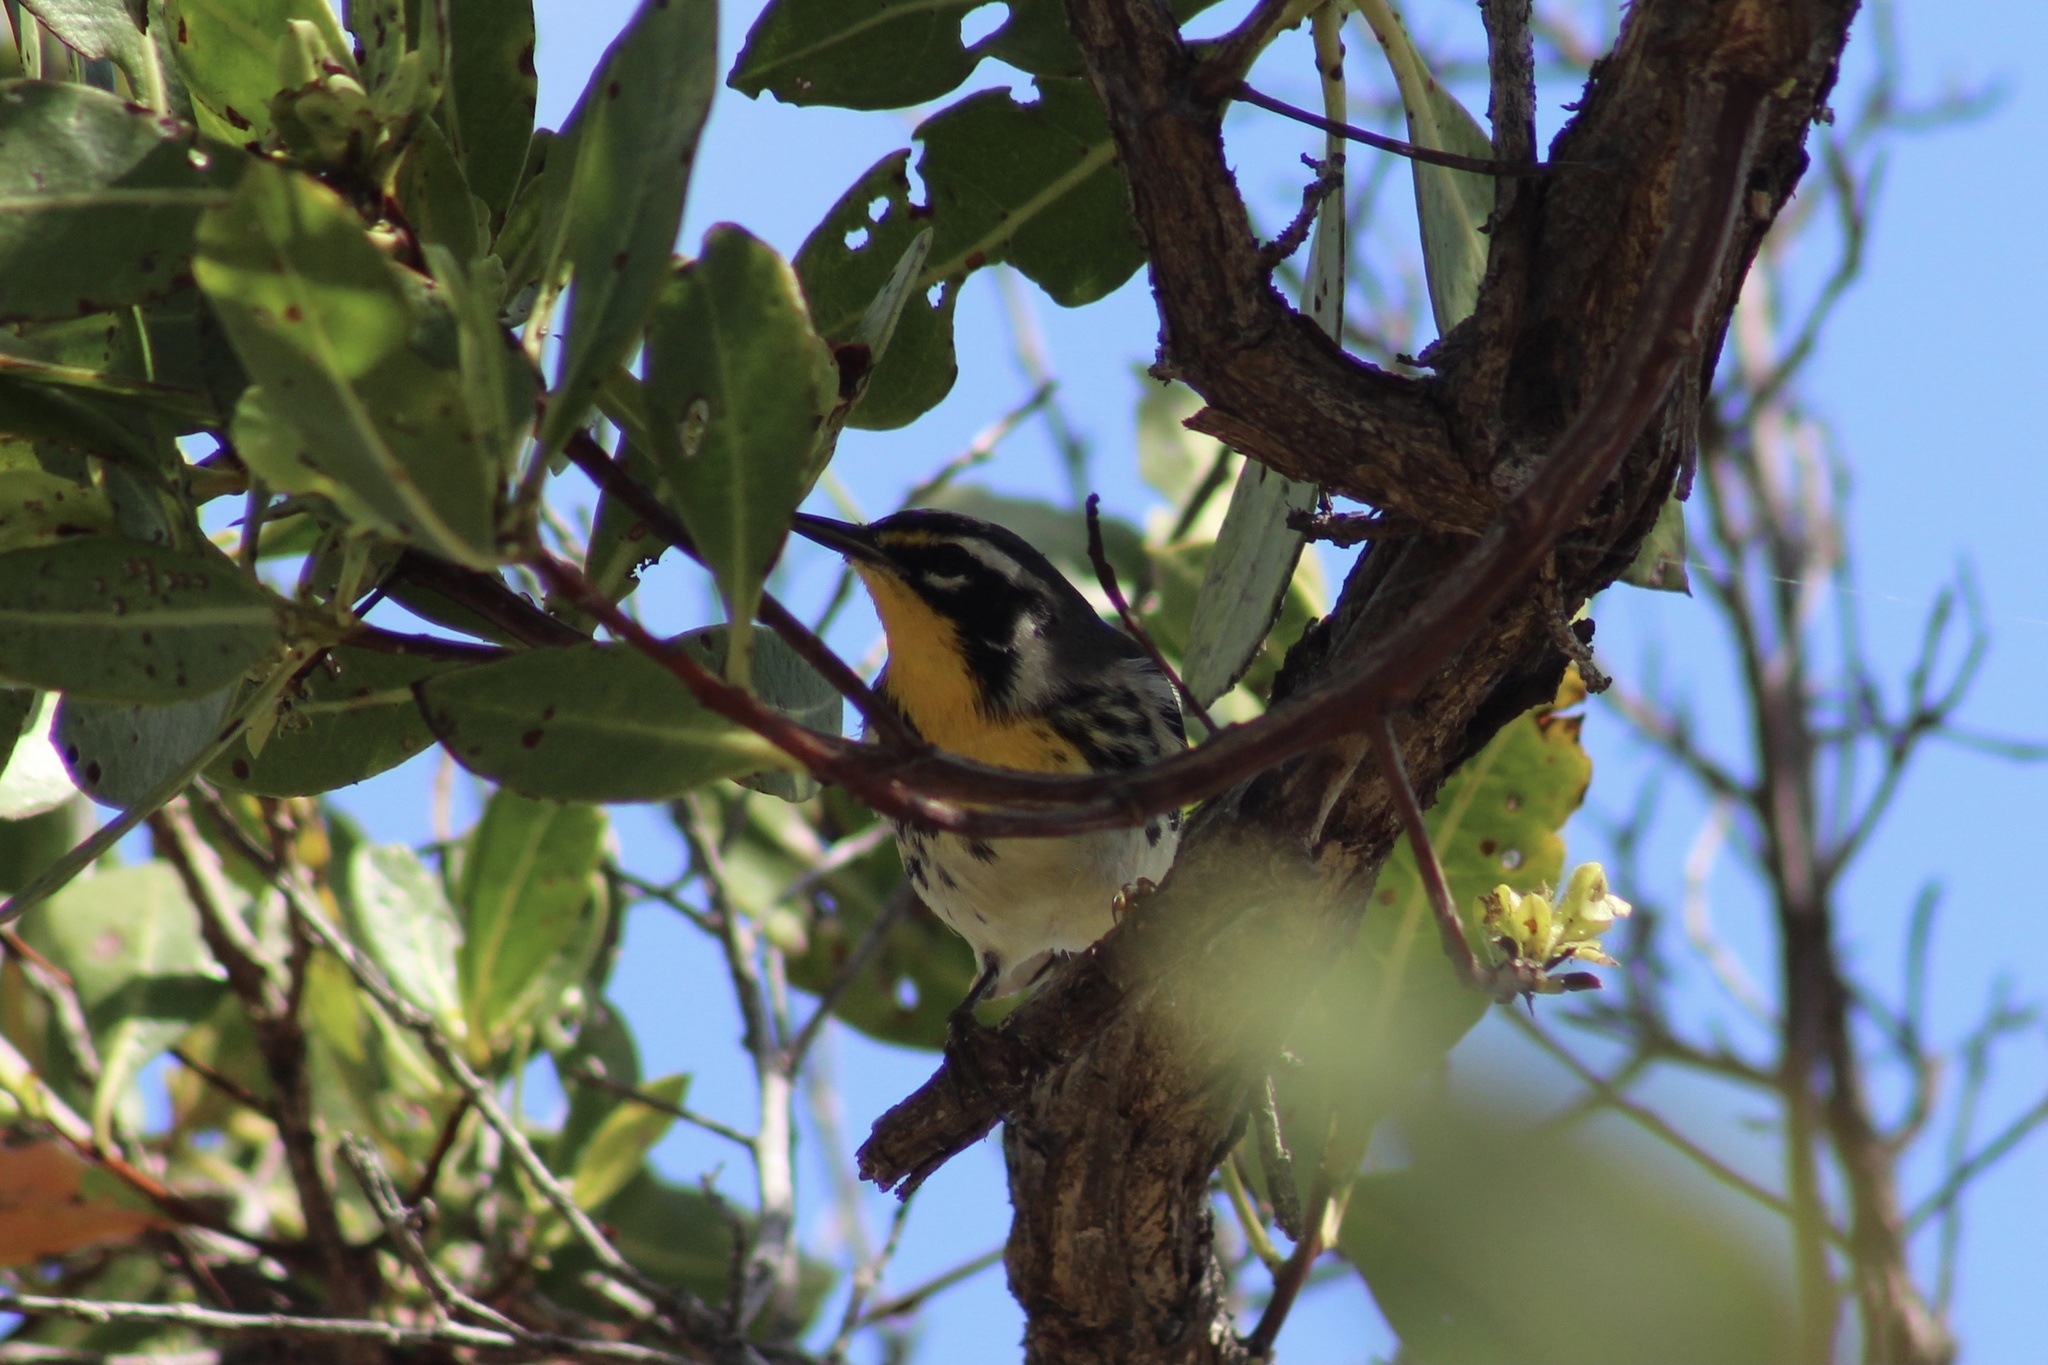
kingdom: Animalia
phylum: Chordata
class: Aves
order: Passeriformes
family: Parulidae
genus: Setophaga
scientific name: Setophaga dominica
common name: Yellow-throated warbler
